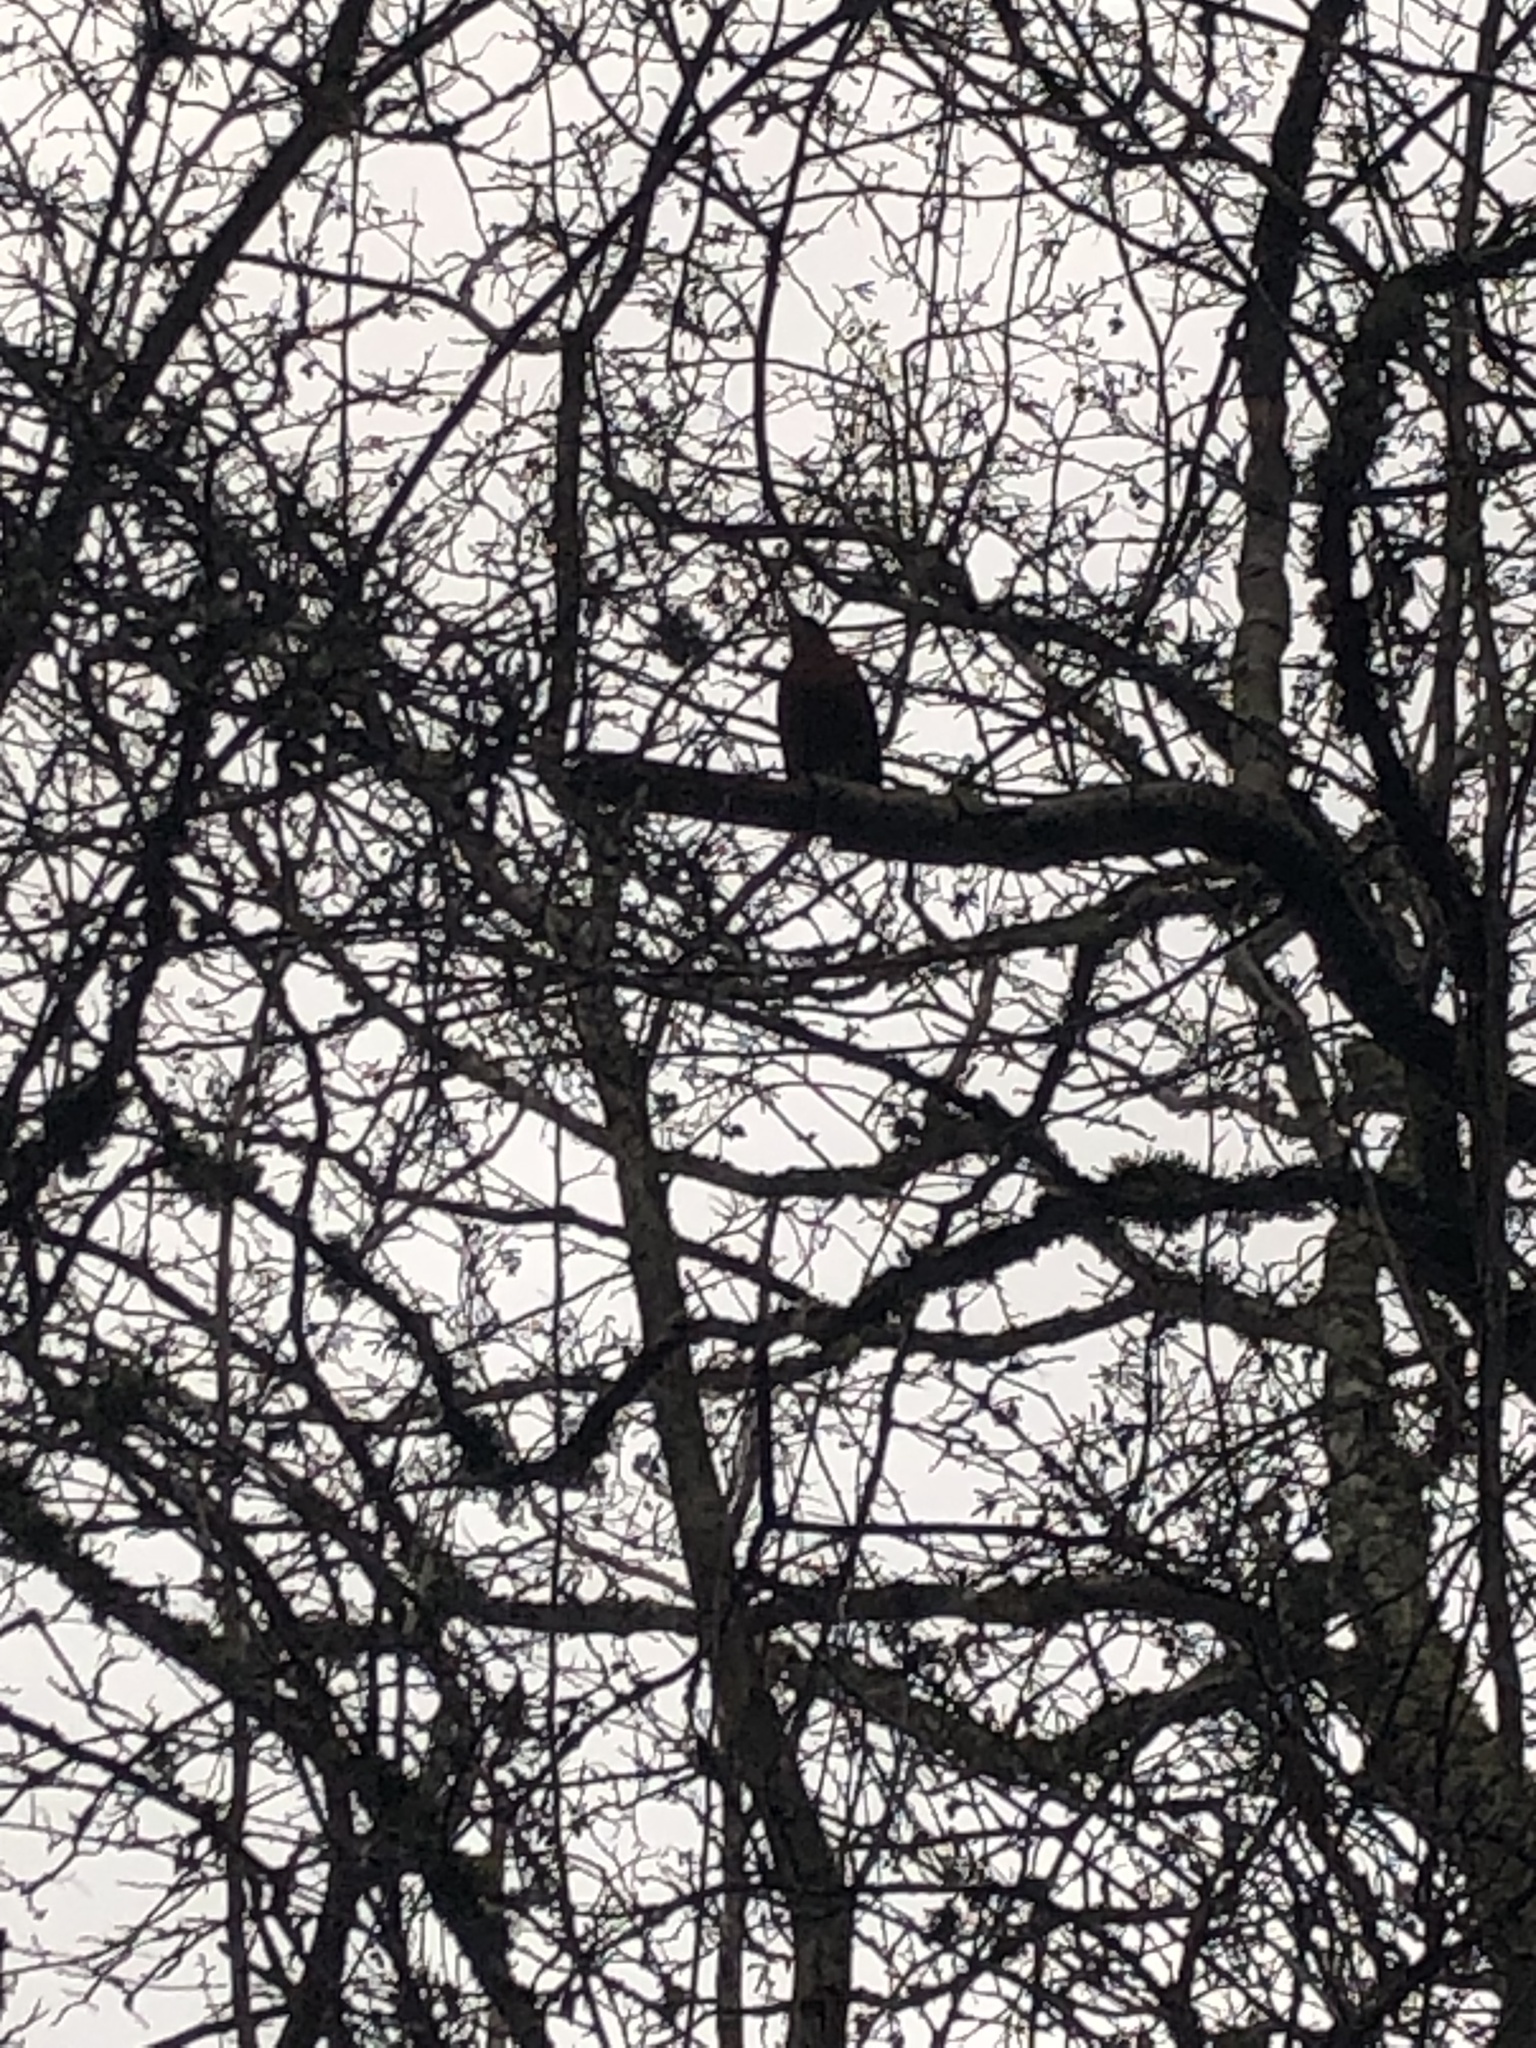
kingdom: Animalia
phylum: Chordata
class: Aves
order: Passeriformes
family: Turdidae
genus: Turdus
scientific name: Turdus migratorius
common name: American robin
